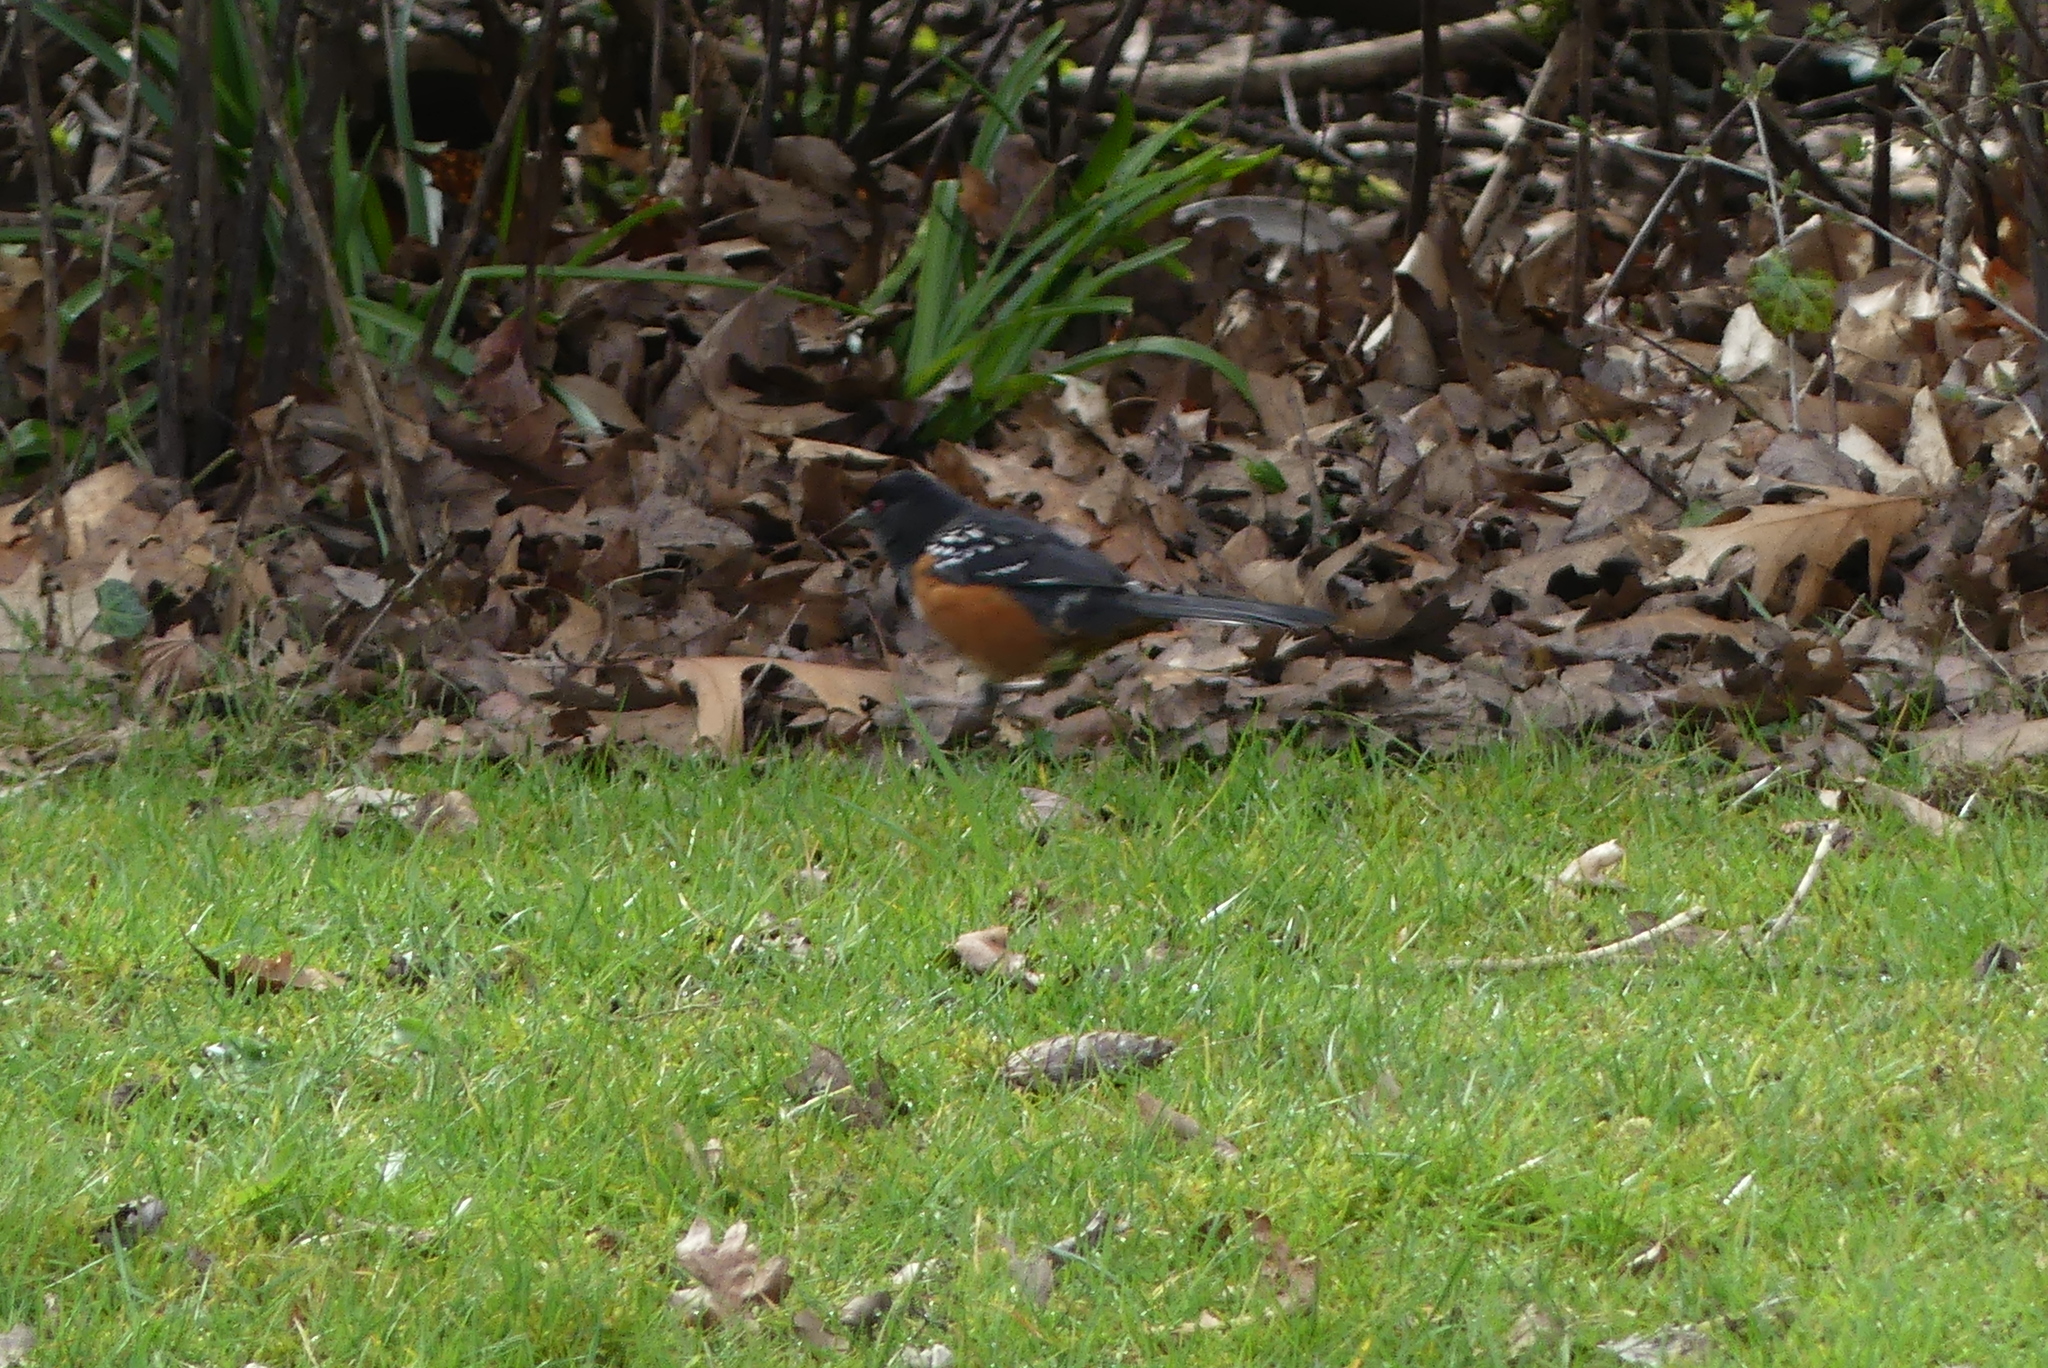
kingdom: Animalia
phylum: Chordata
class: Aves
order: Passeriformes
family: Passerellidae
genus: Pipilo
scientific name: Pipilo maculatus
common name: Spotted towhee
